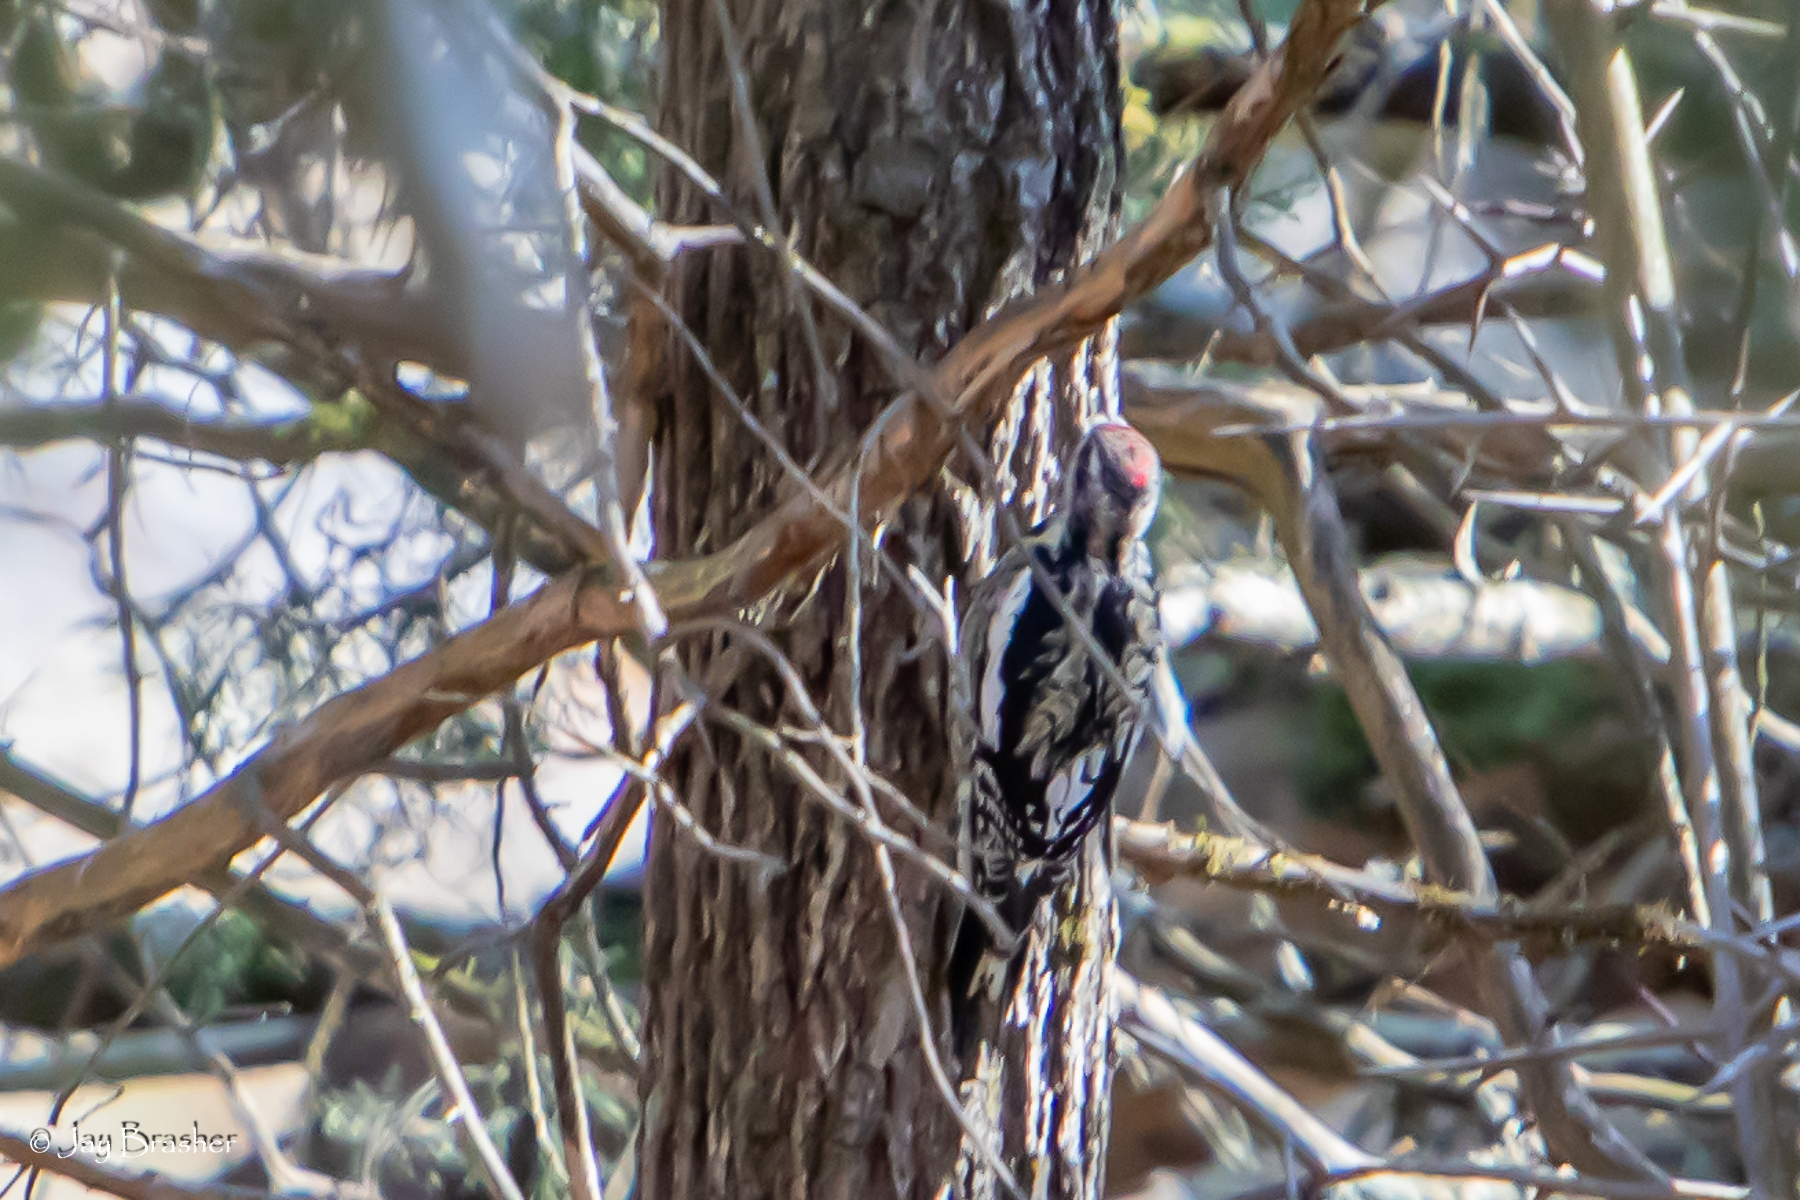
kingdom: Animalia
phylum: Chordata
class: Aves
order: Piciformes
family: Picidae
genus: Sphyrapicus
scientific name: Sphyrapicus varius
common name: Yellow-bellied sapsucker
